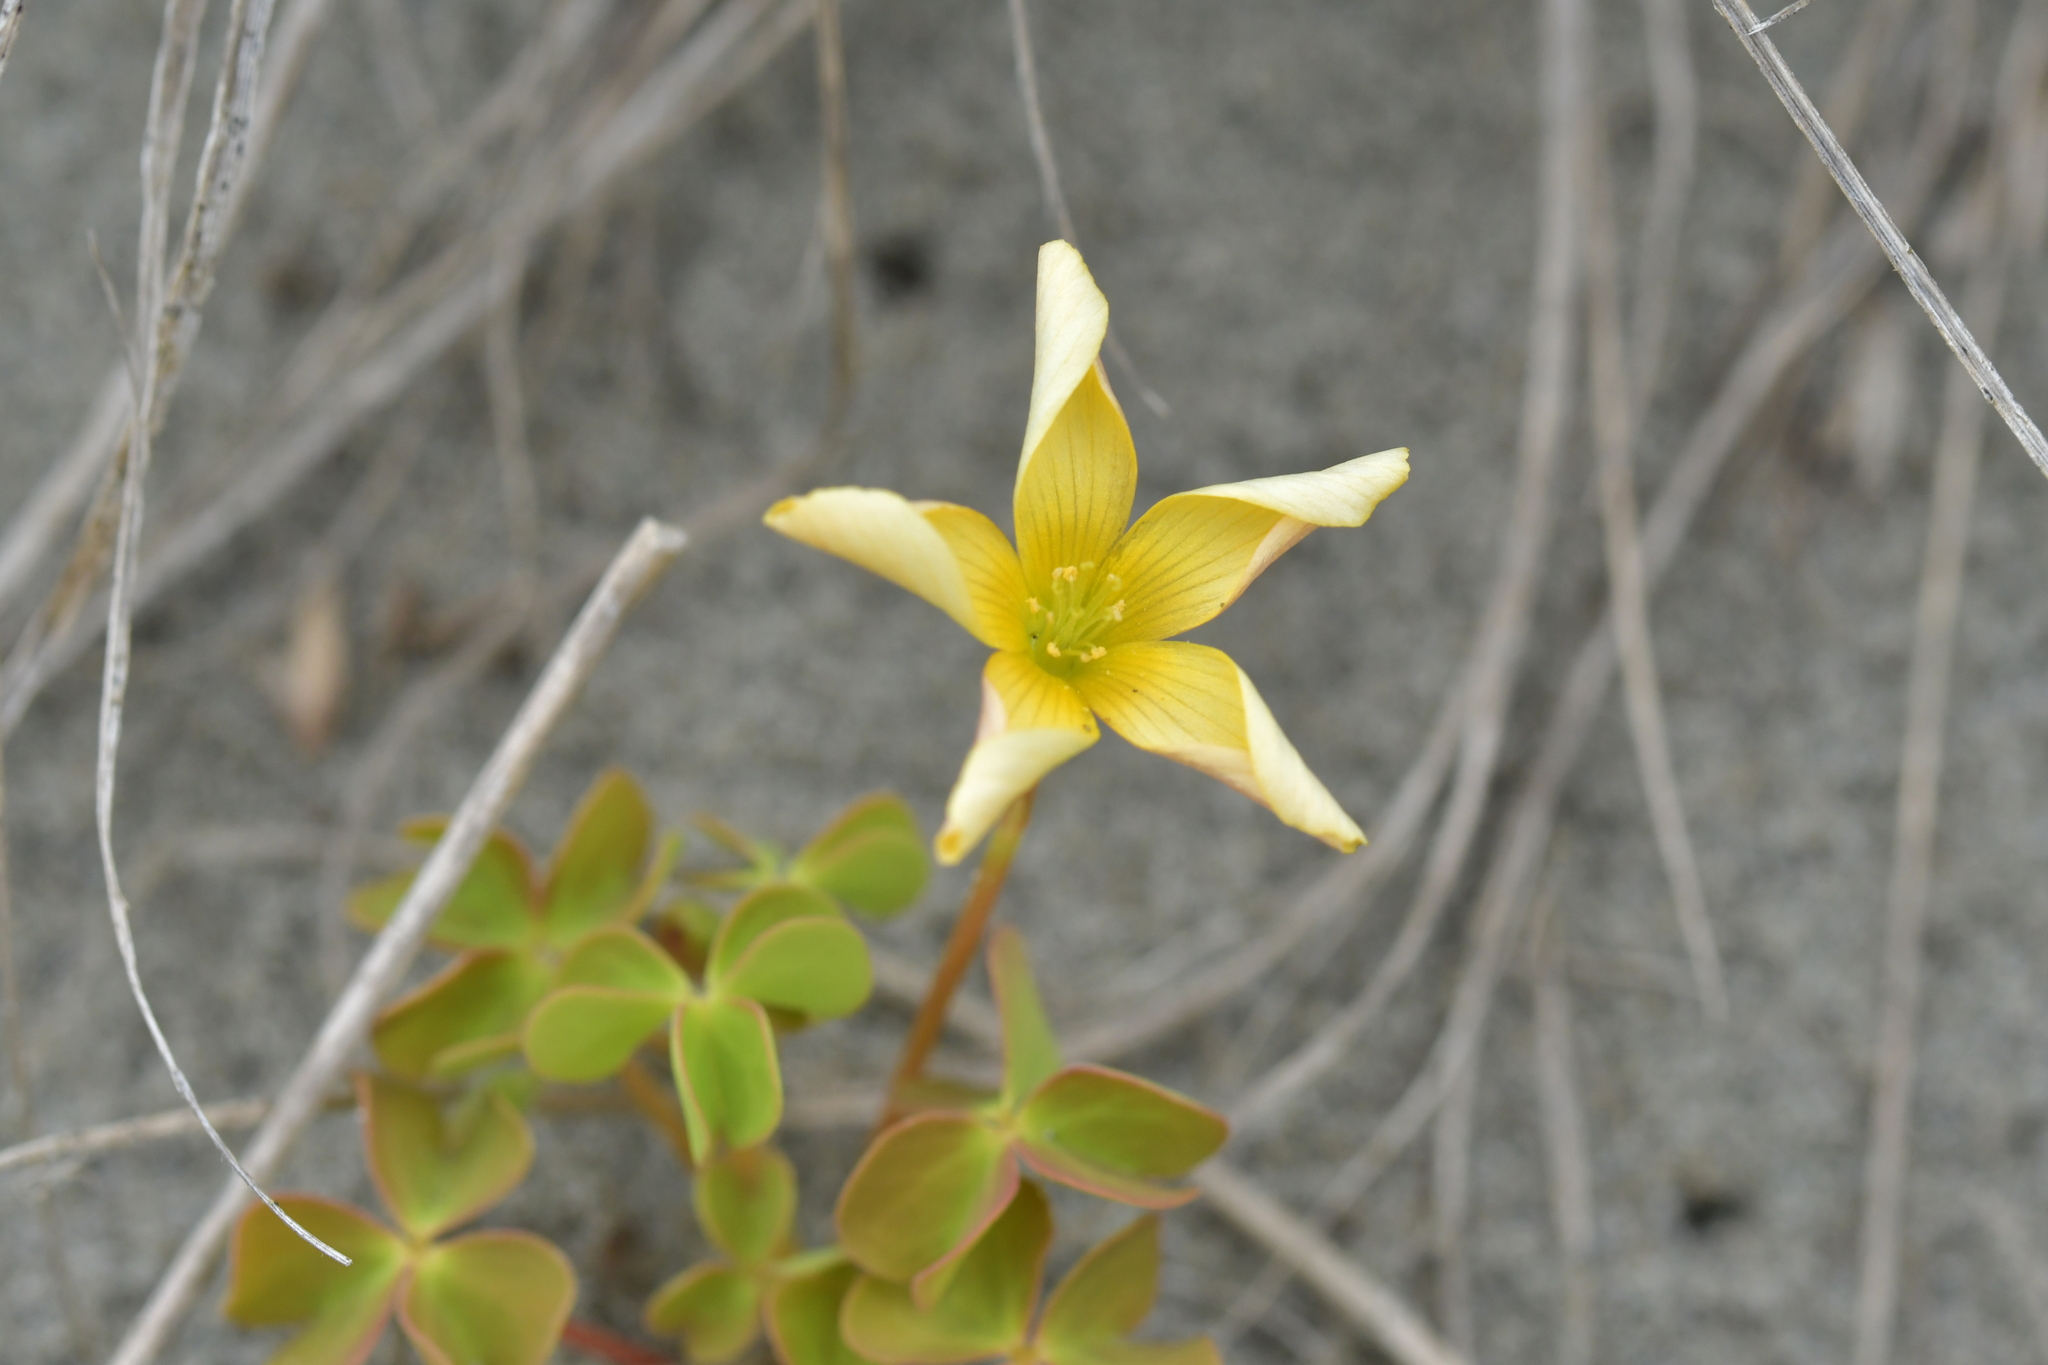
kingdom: Plantae
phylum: Tracheophyta
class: Magnoliopsida
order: Oxalidales
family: Oxalidaceae
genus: Oxalis
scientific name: Oxalis rubens
